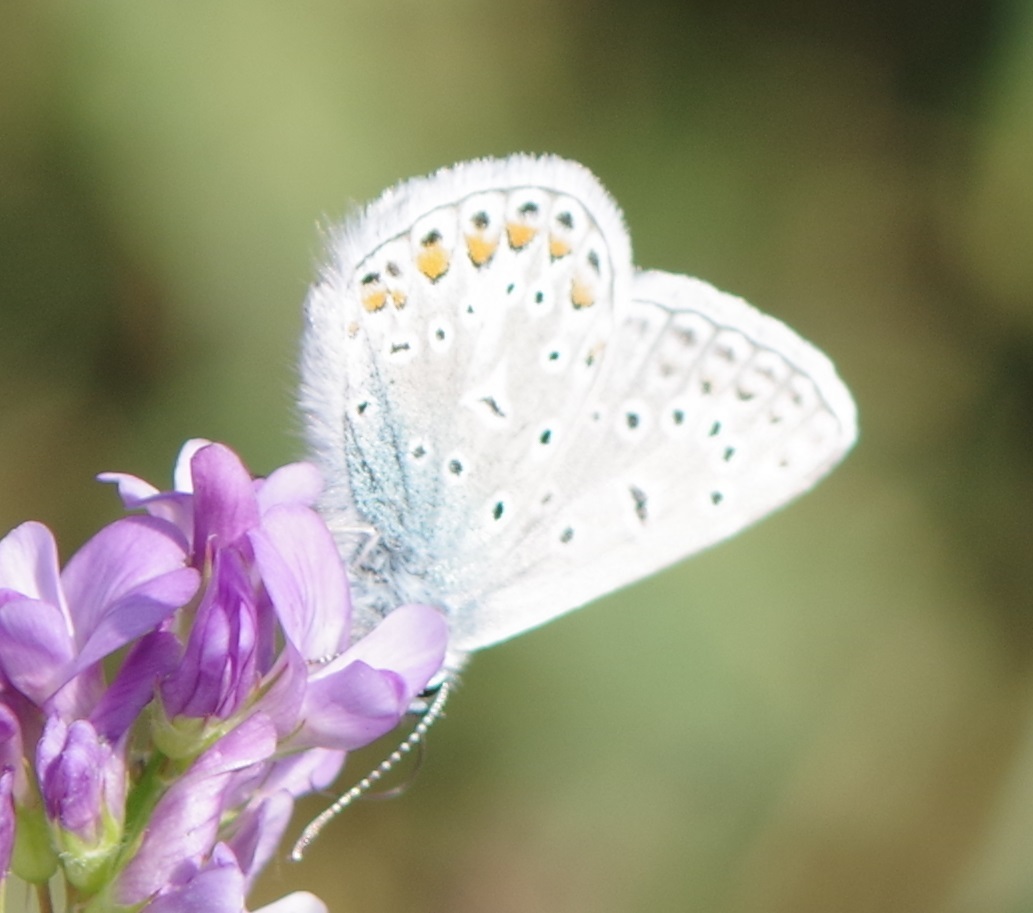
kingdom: Animalia
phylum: Arthropoda
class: Insecta
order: Lepidoptera
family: Lycaenidae
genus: Polyommatus
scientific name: Polyommatus icarus
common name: Common blue
